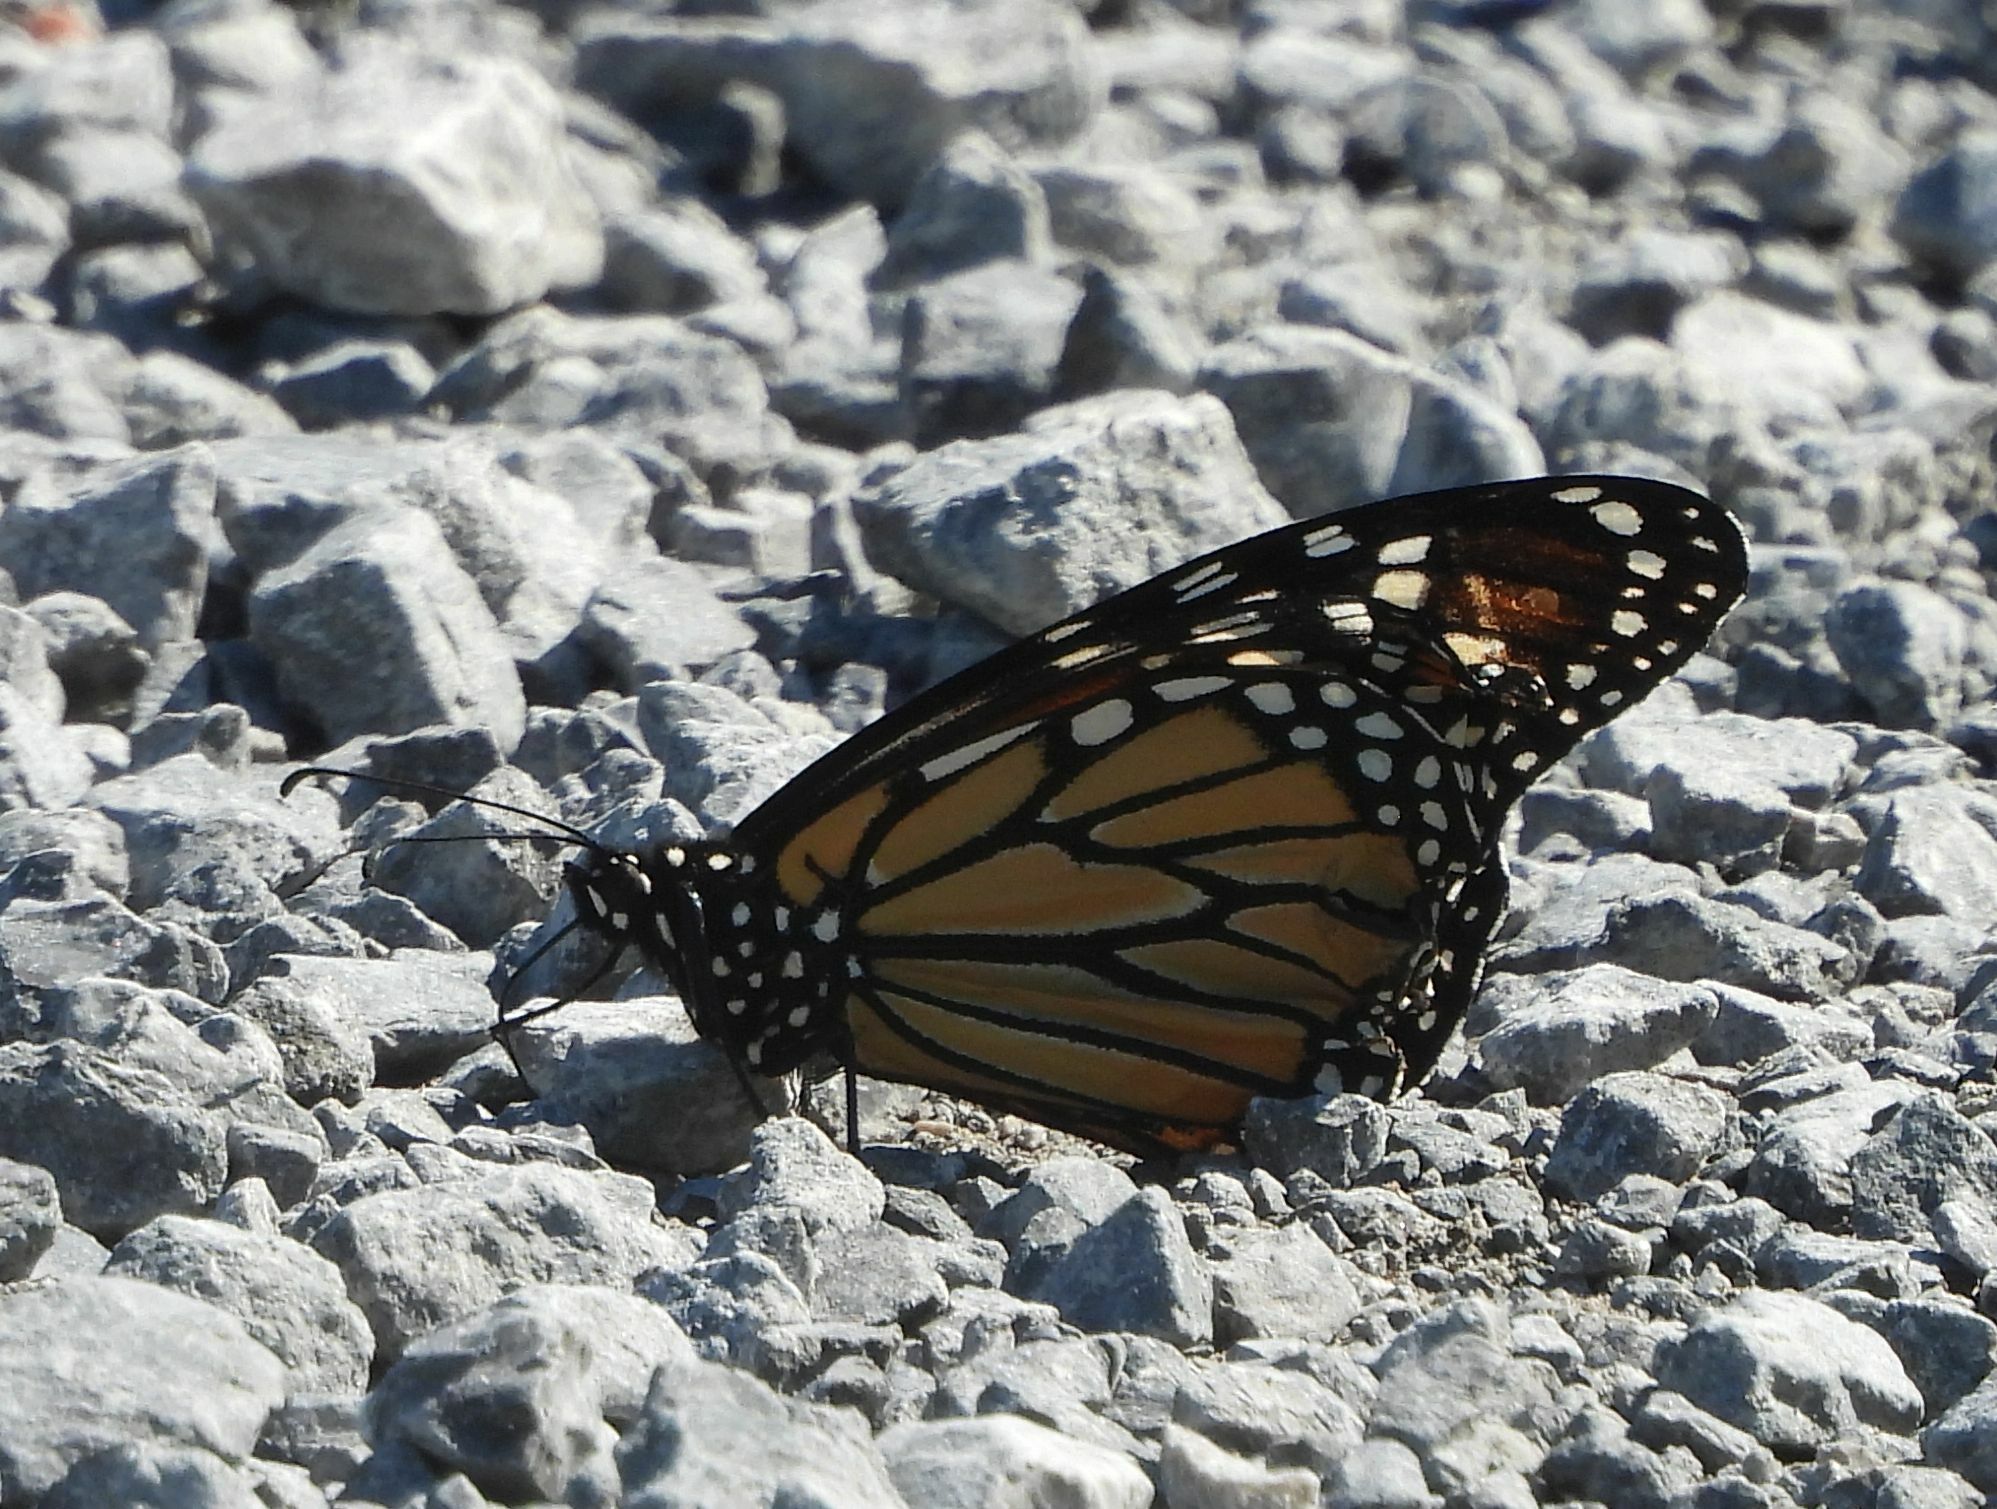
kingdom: Animalia
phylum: Arthropoda
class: Insecta
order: Lepidoptera
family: Nymphalidae
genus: Danaus
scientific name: Danaus plexippus
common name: Monarch
